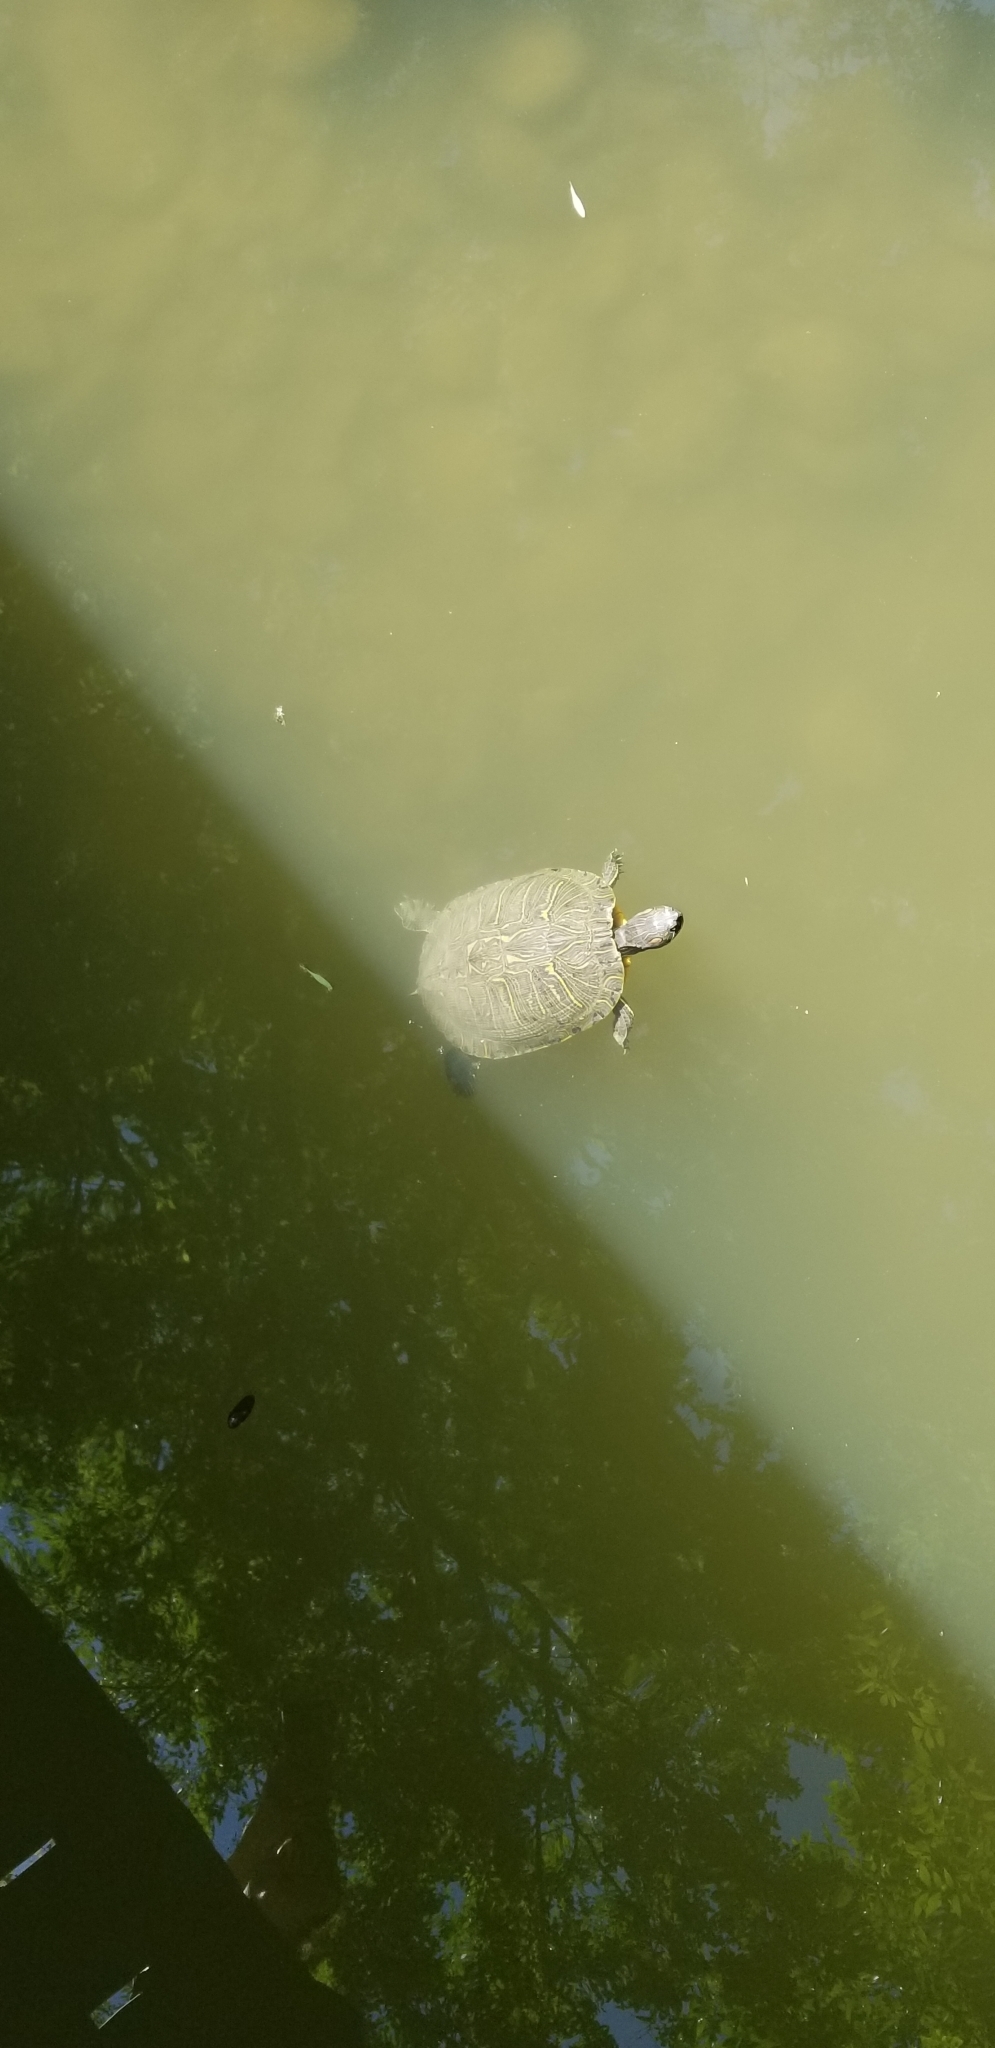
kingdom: Animalia
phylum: Chordata
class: Testudines
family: Emydidae
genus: Trachemys
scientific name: Trachemys scripta
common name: Slider
